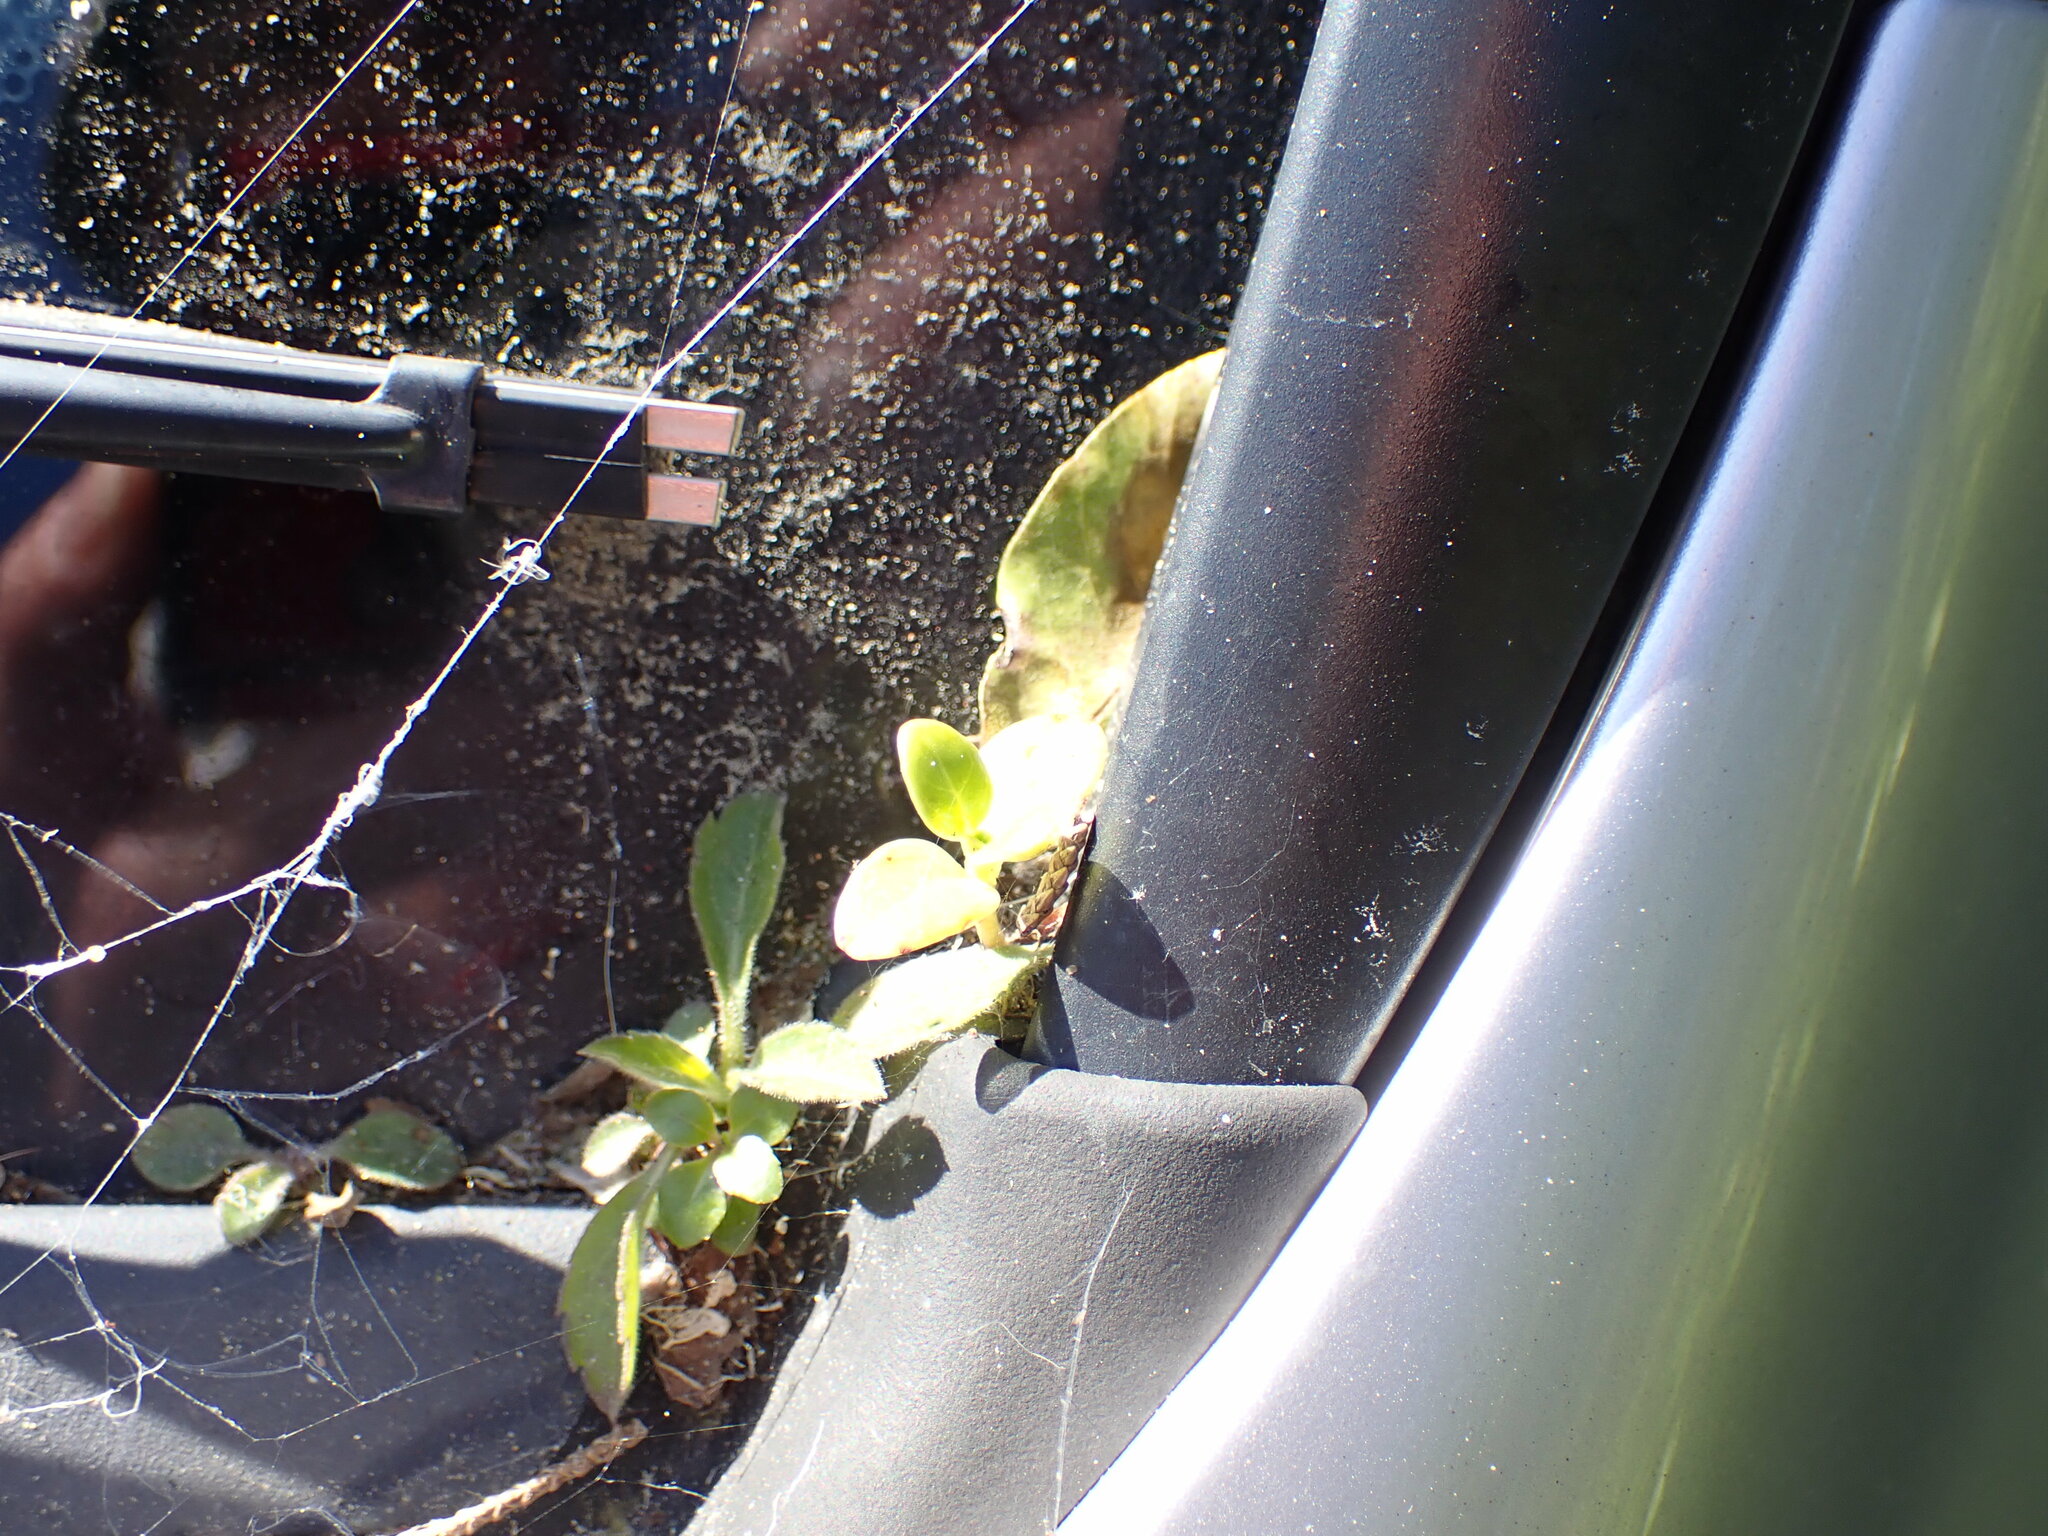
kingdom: Plantae
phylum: Tracheophyta
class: Magnoliopsida
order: Gentianales
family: Rubiaceae
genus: Coprosma
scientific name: Coprosma repens
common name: Tree bedstraw
